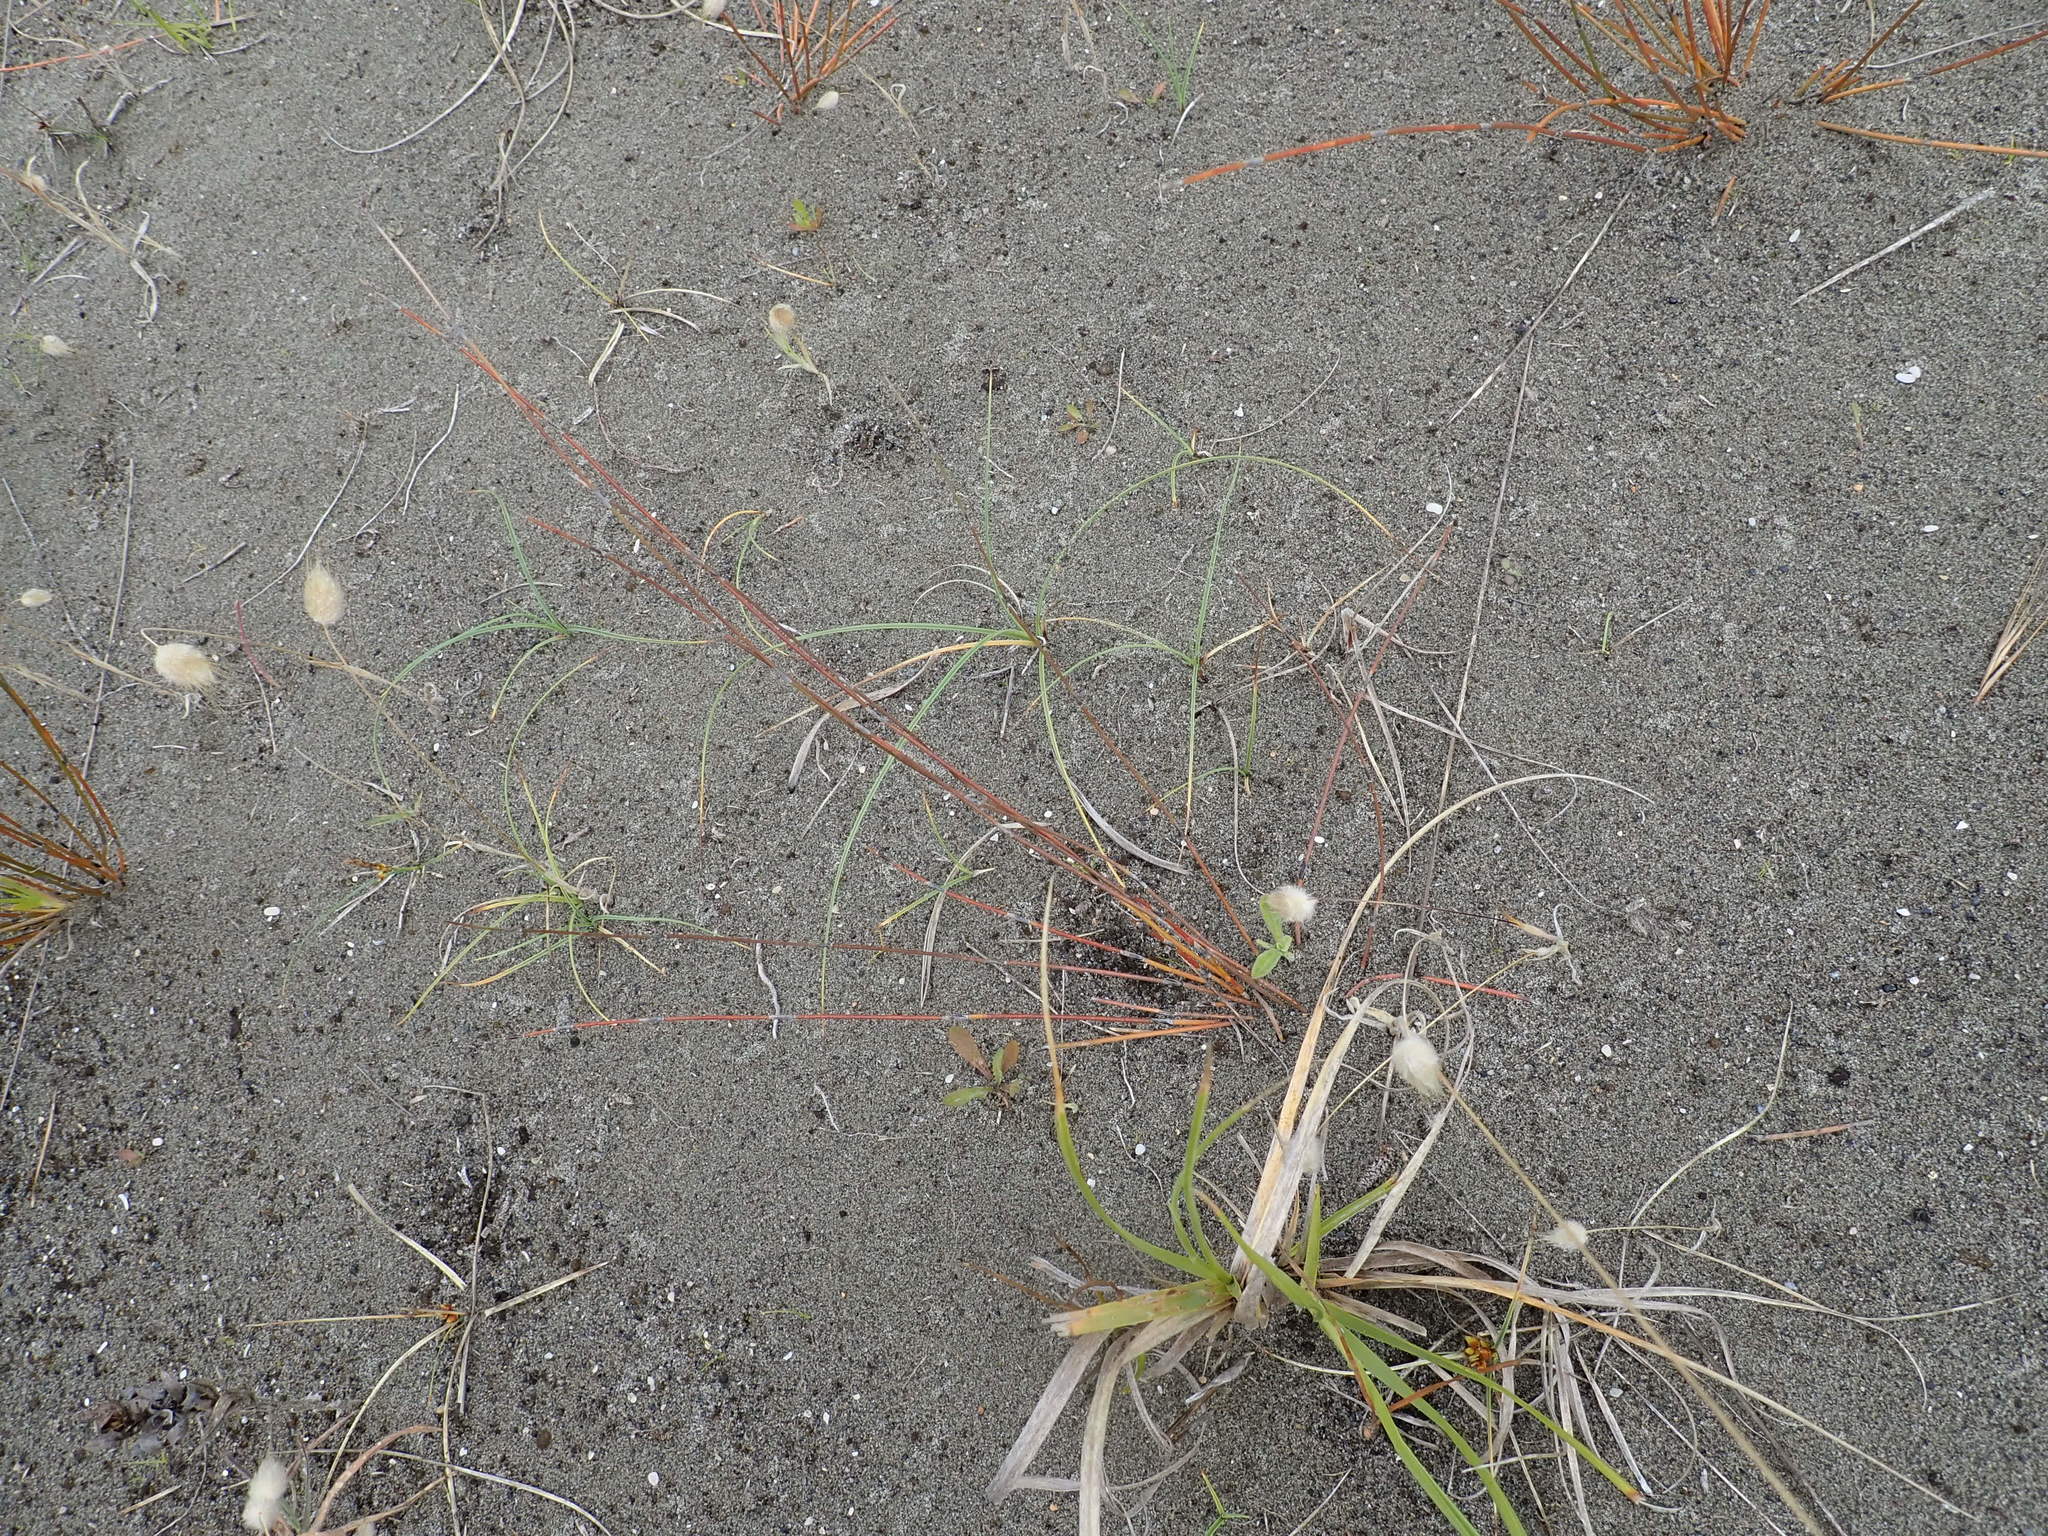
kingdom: Plantae
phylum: Tracheophyta
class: Liliopsida
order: Poales
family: Cyperaceae
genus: Carex
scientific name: Carex pumila
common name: Dwarf sedge
